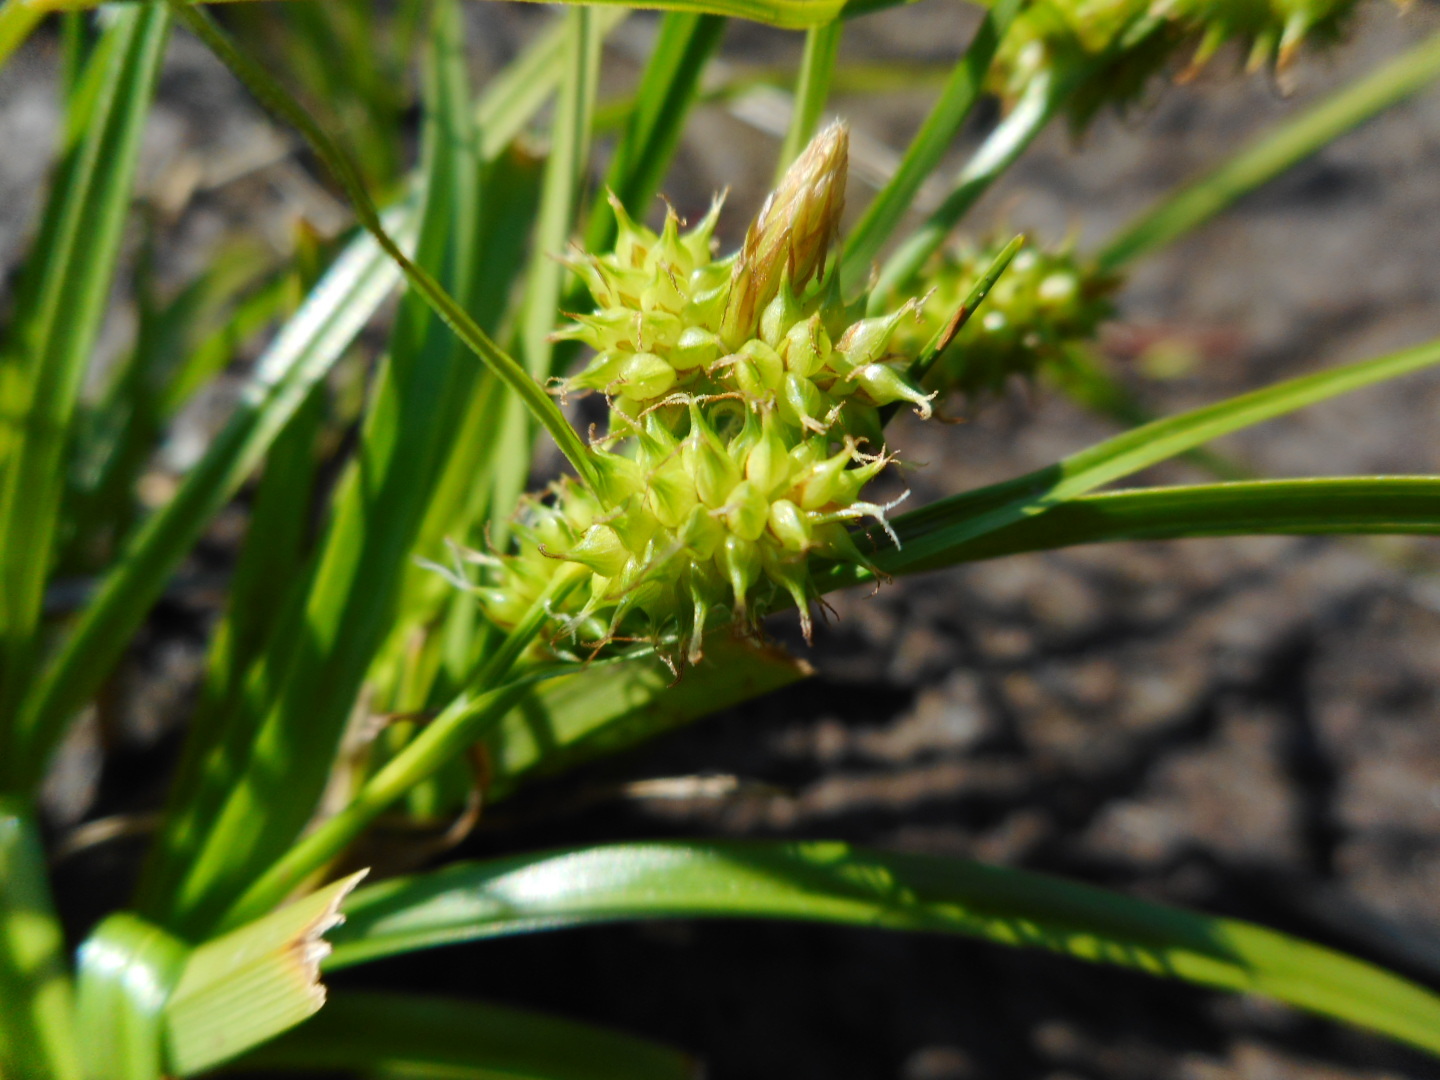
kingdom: Plantae
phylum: Tracheophyta
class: Liliopsida
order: Poales
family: Cyperaceae
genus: Carex
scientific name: Carex
